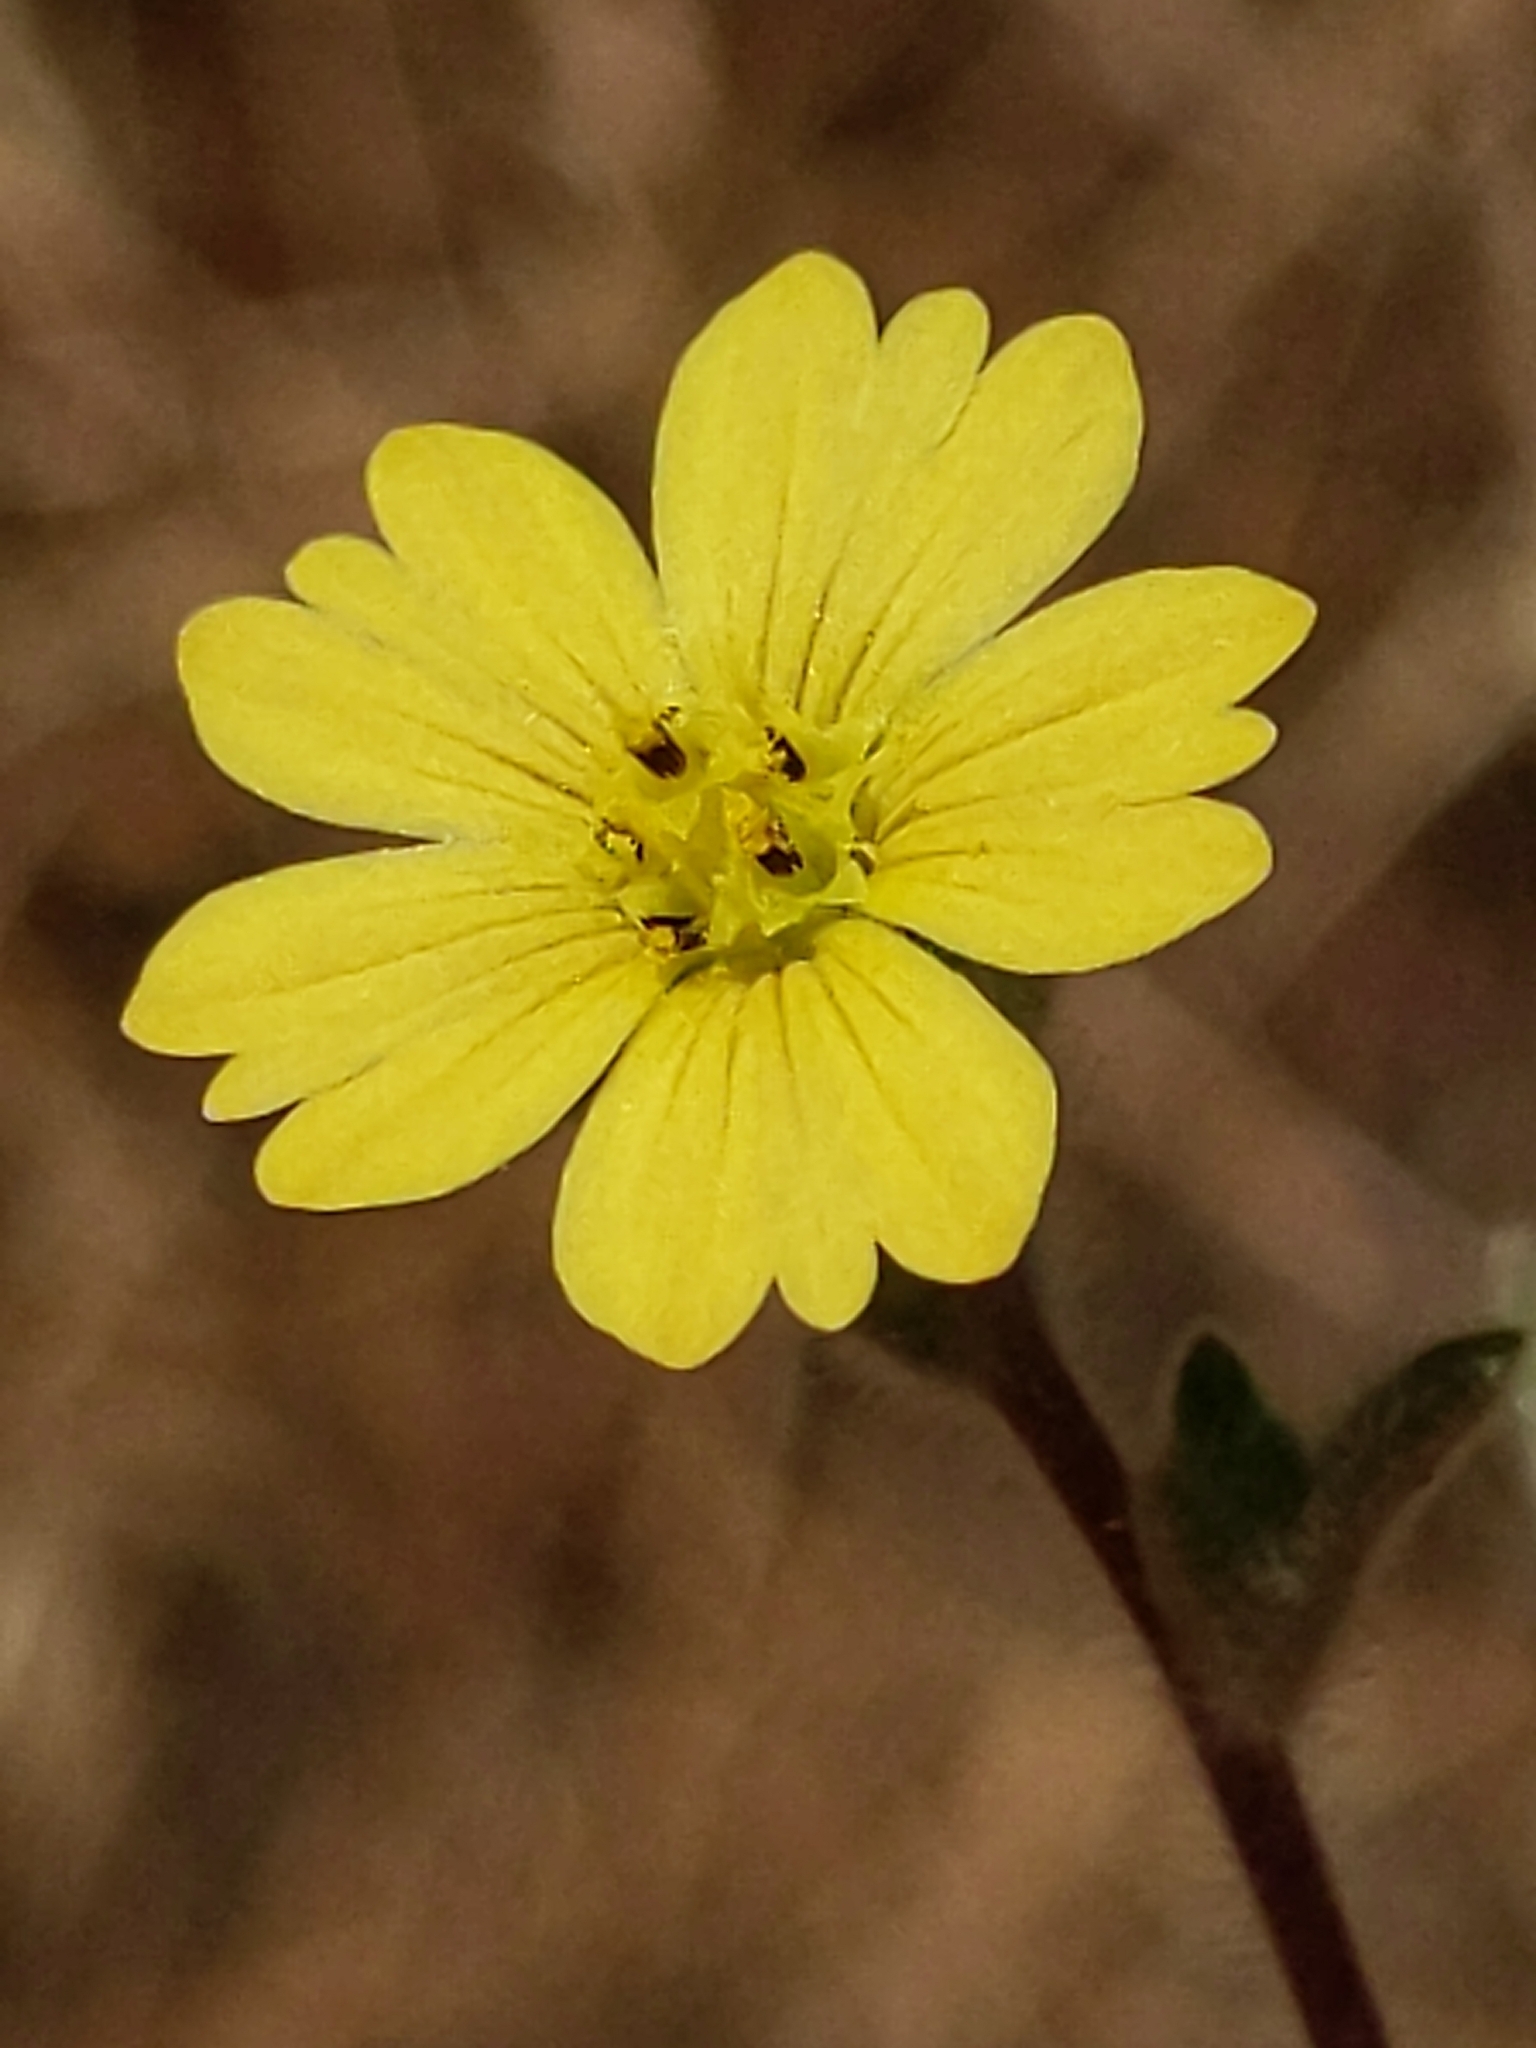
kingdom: Plantae
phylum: Tracheophyta
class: Magnoliopsida
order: Asterales
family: Asteraceae
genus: Lagophylla
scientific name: Lagophylla ramosissima
